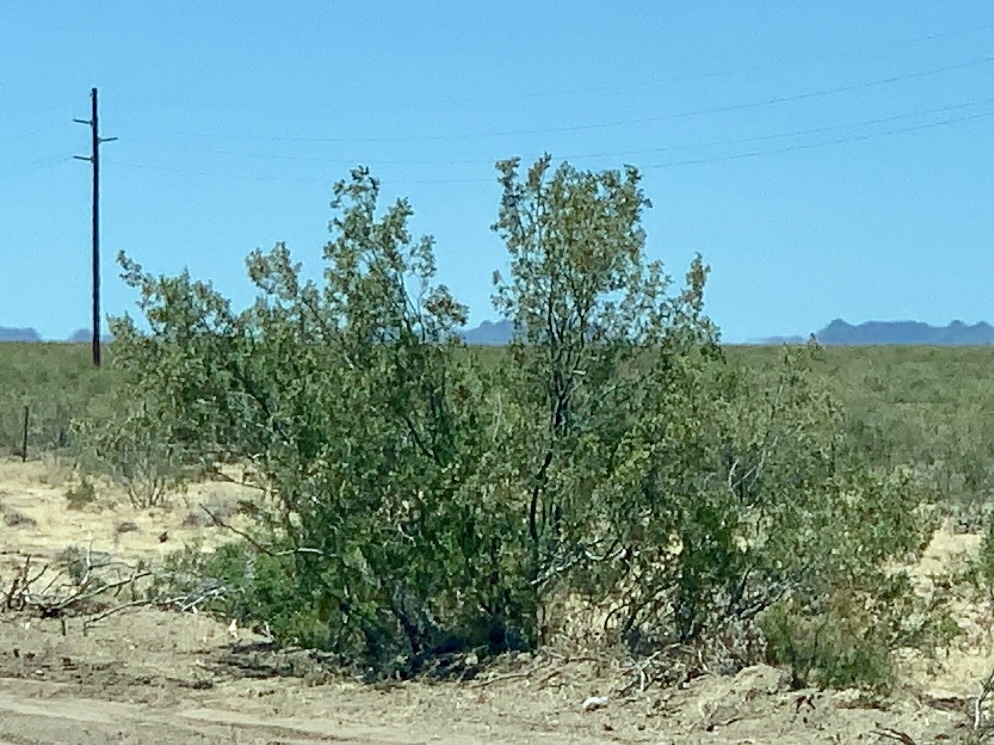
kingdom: Plantae
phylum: Tracheophyta
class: Magnoliopsida
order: Zygophyllales
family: Zygophyllaceae
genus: Larrea
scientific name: Larrea tridentata
